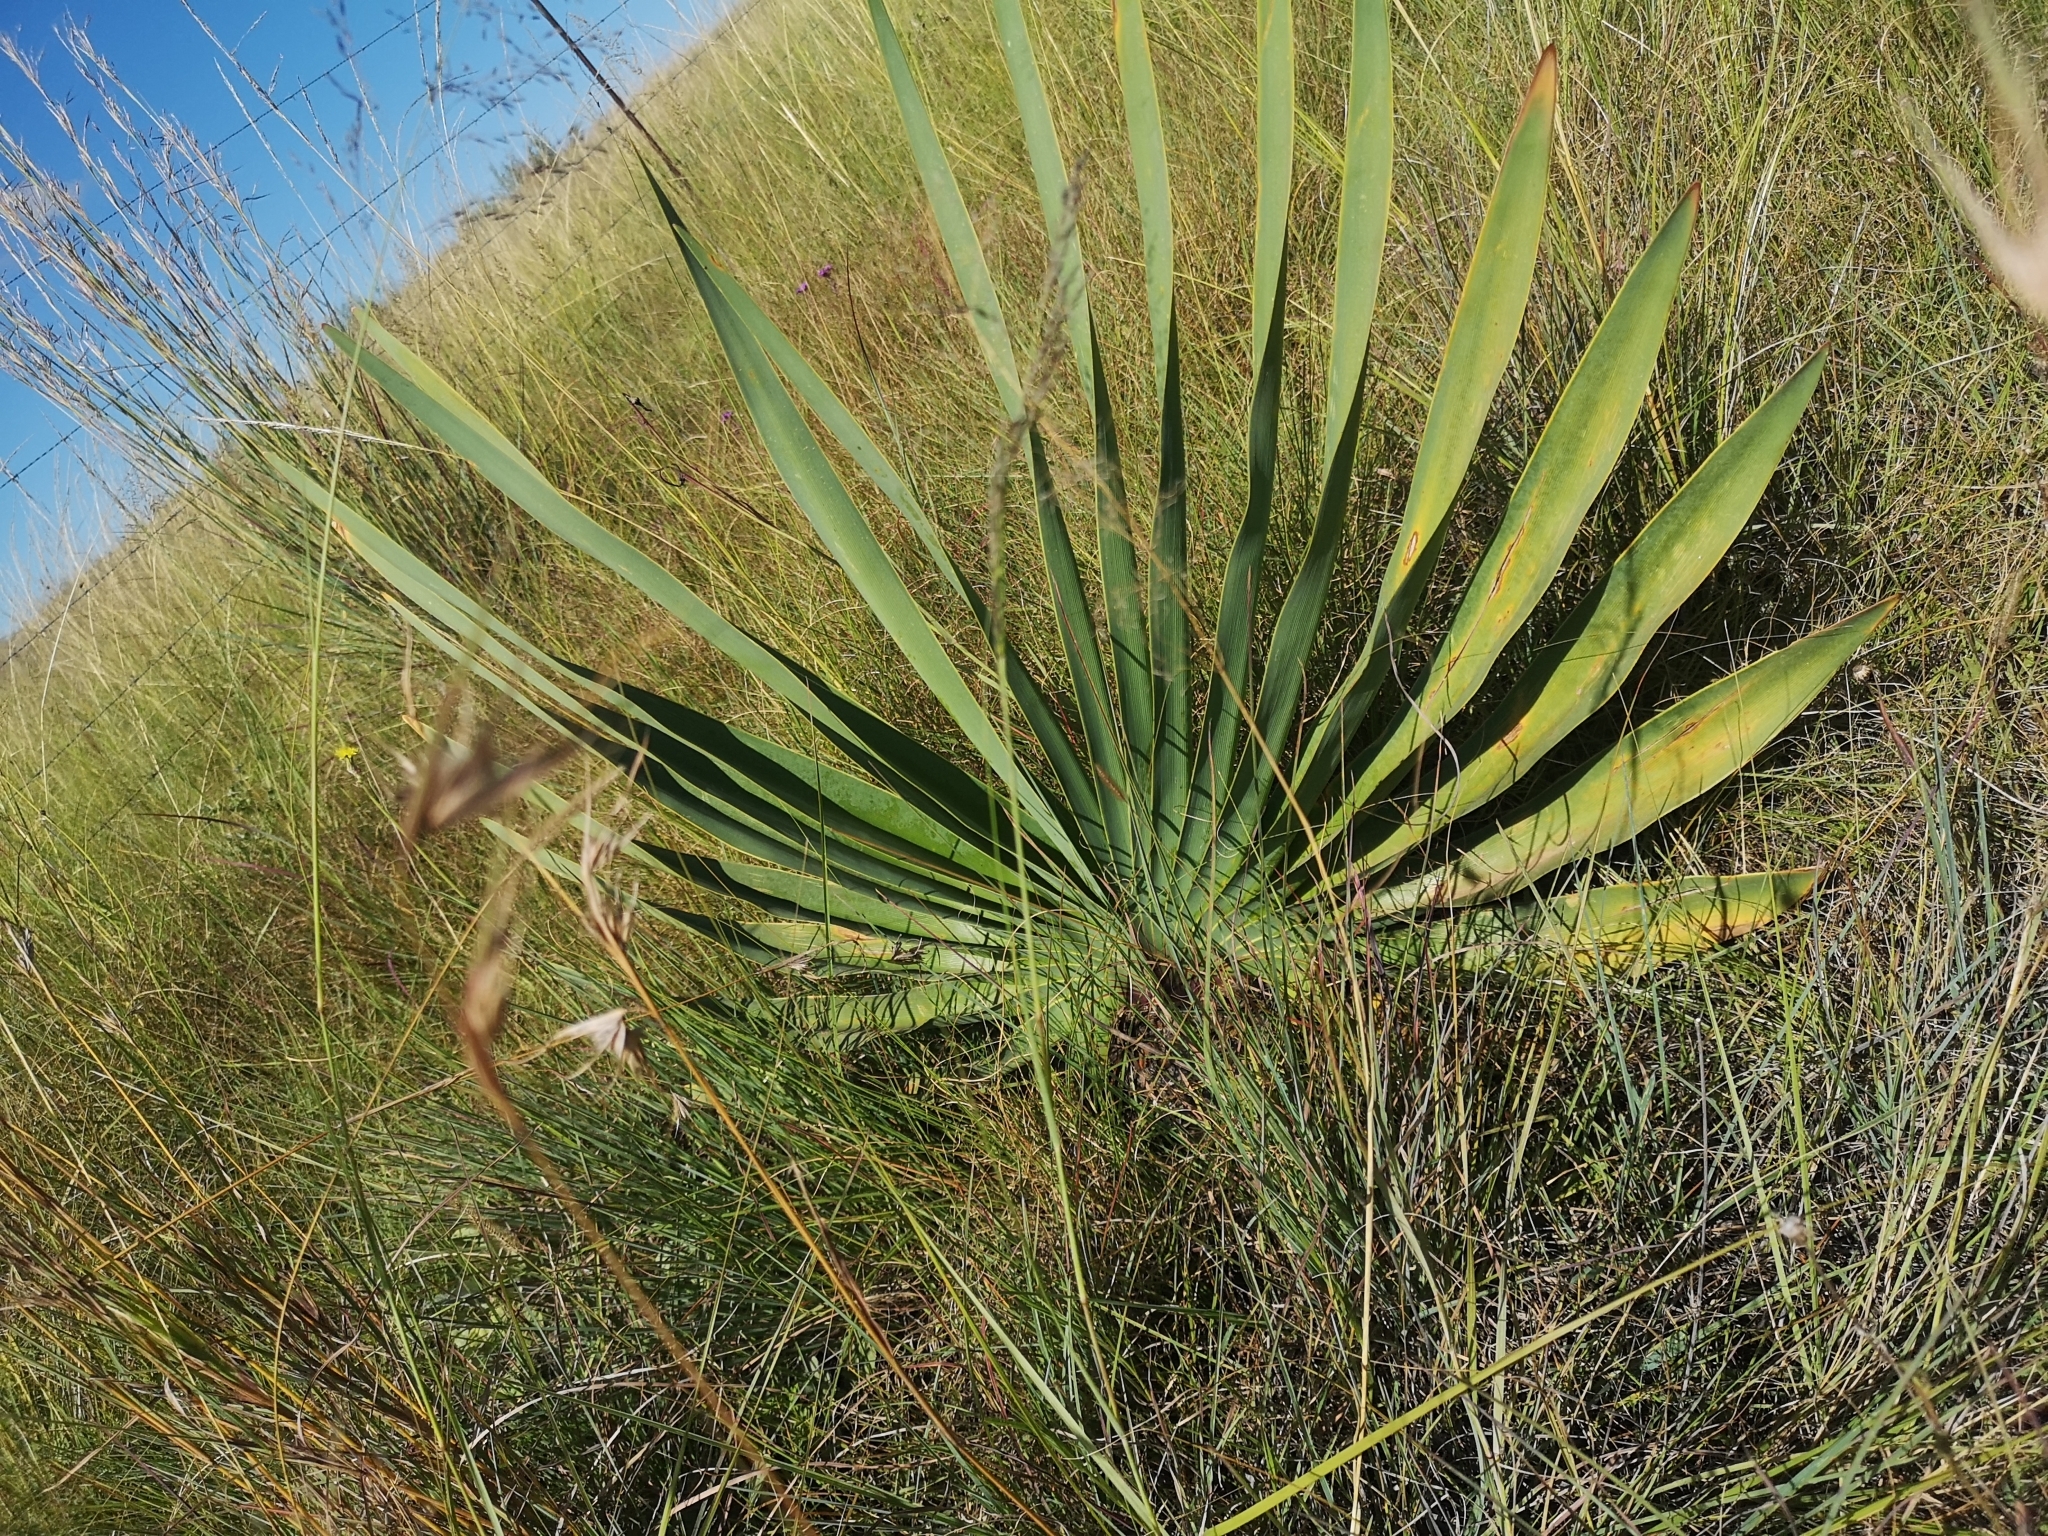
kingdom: Plantae
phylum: Tracheophyta
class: Liliopsida
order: Asparagales
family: Amaryllidaceae
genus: Boophone
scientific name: Boophone disticha
